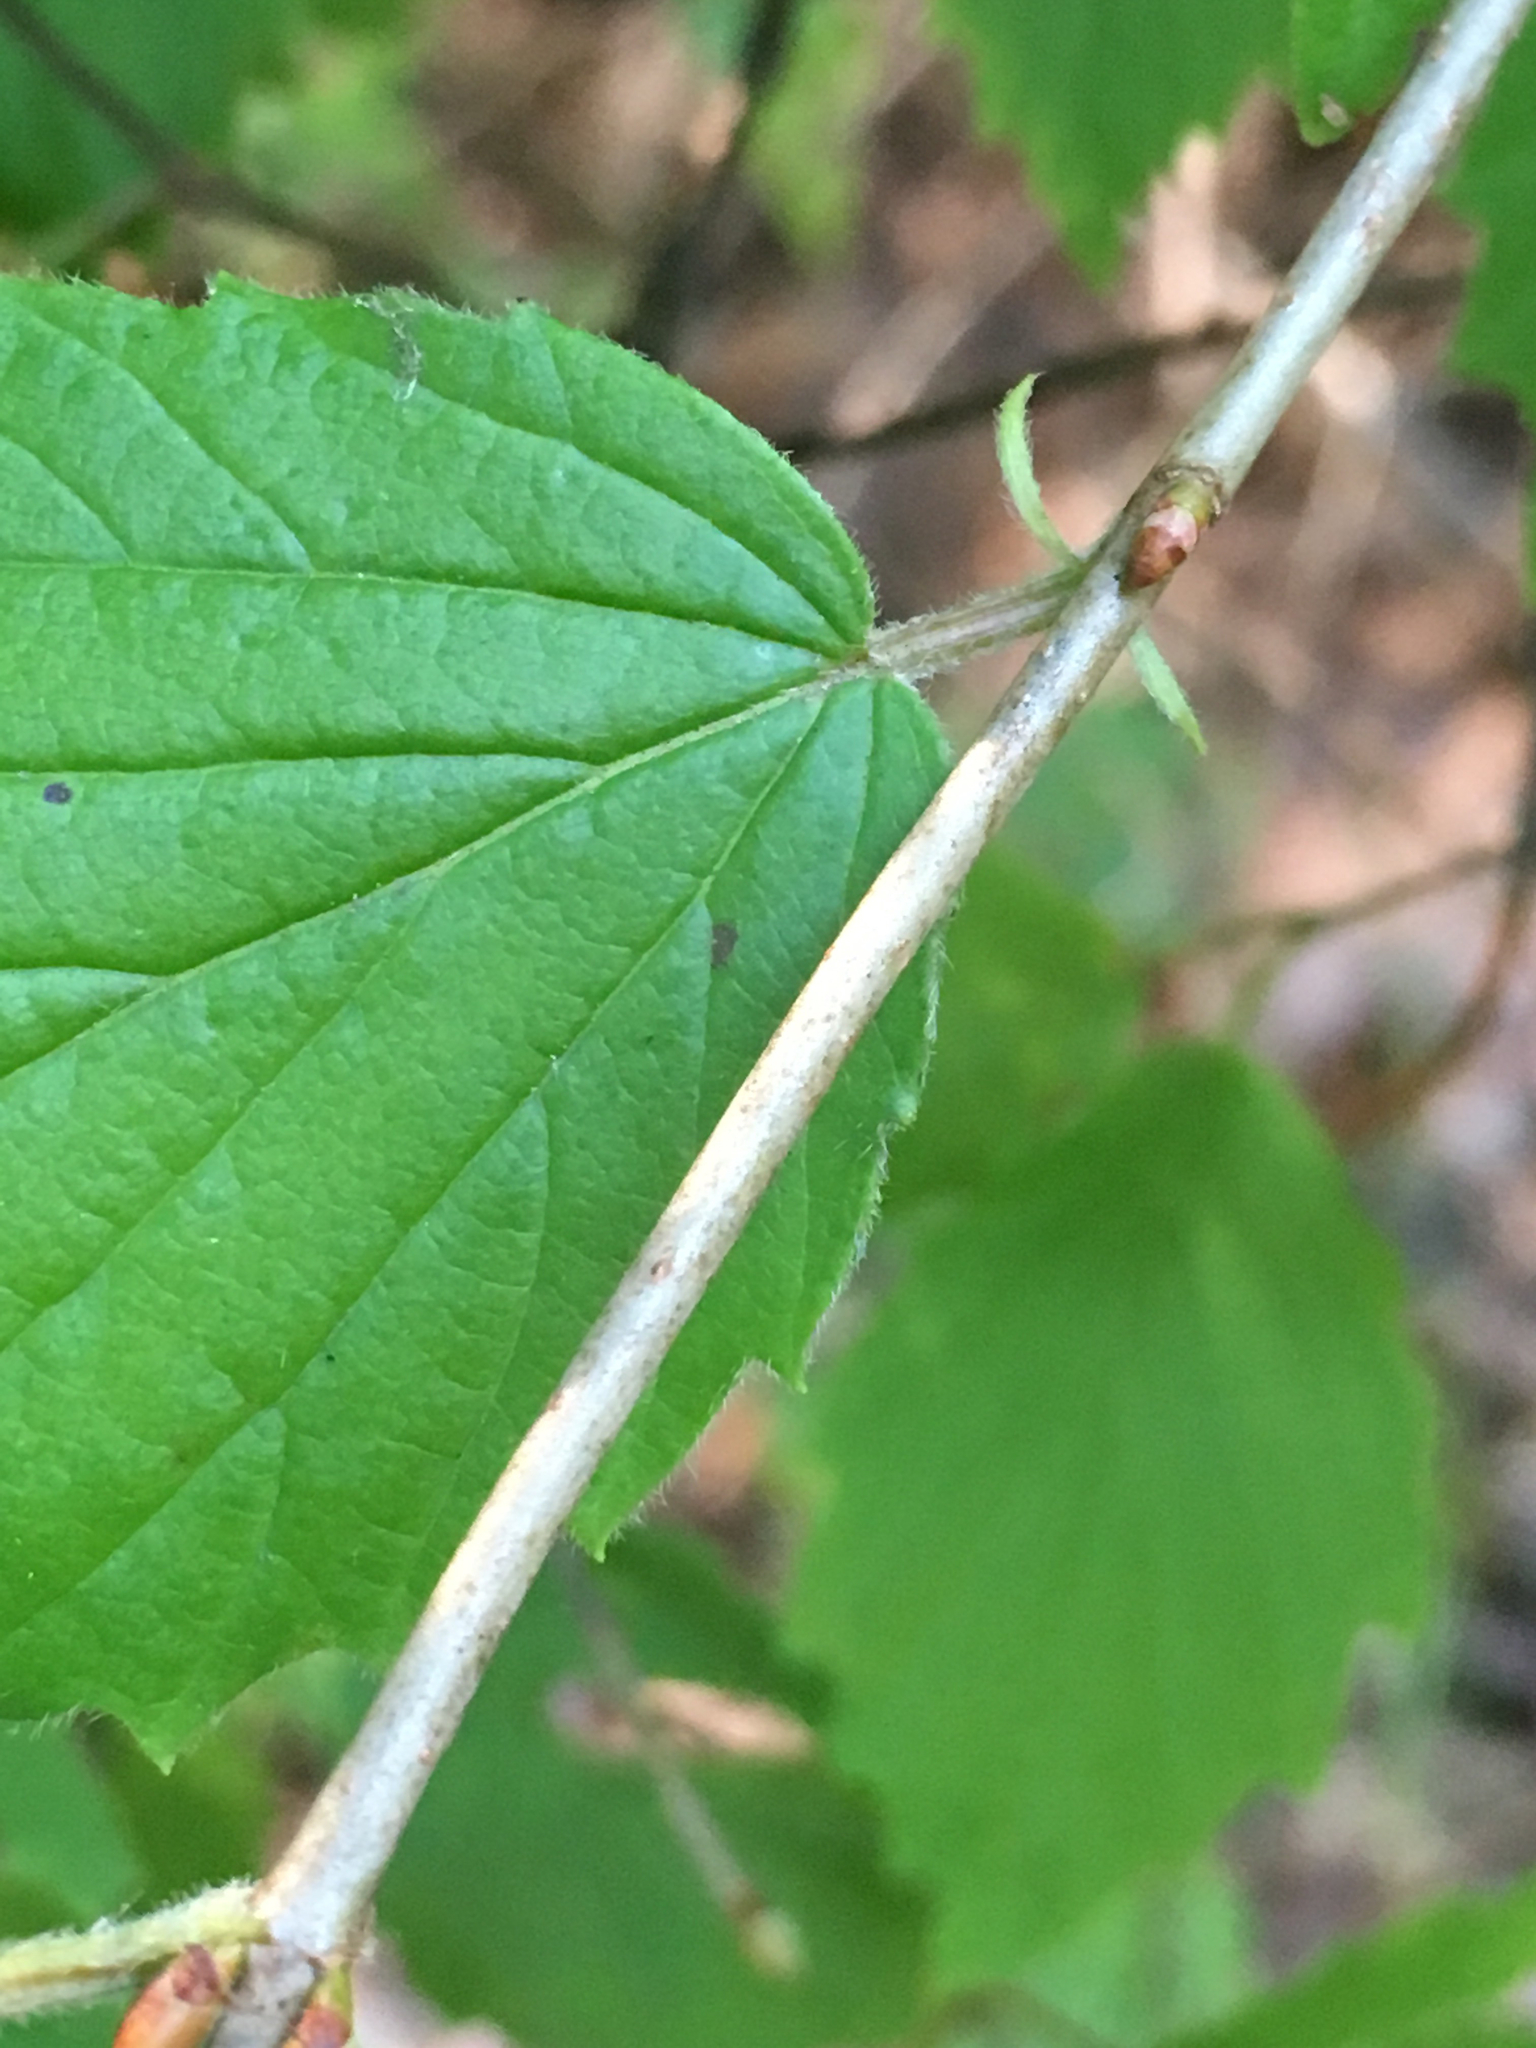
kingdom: Plantae
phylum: Tracheophyta
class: Magnoliopsida
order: Dipsacales
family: Viburnaceae
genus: Viburnum
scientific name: Viburnum rafinesqueanum
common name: Downy arrow-wood
